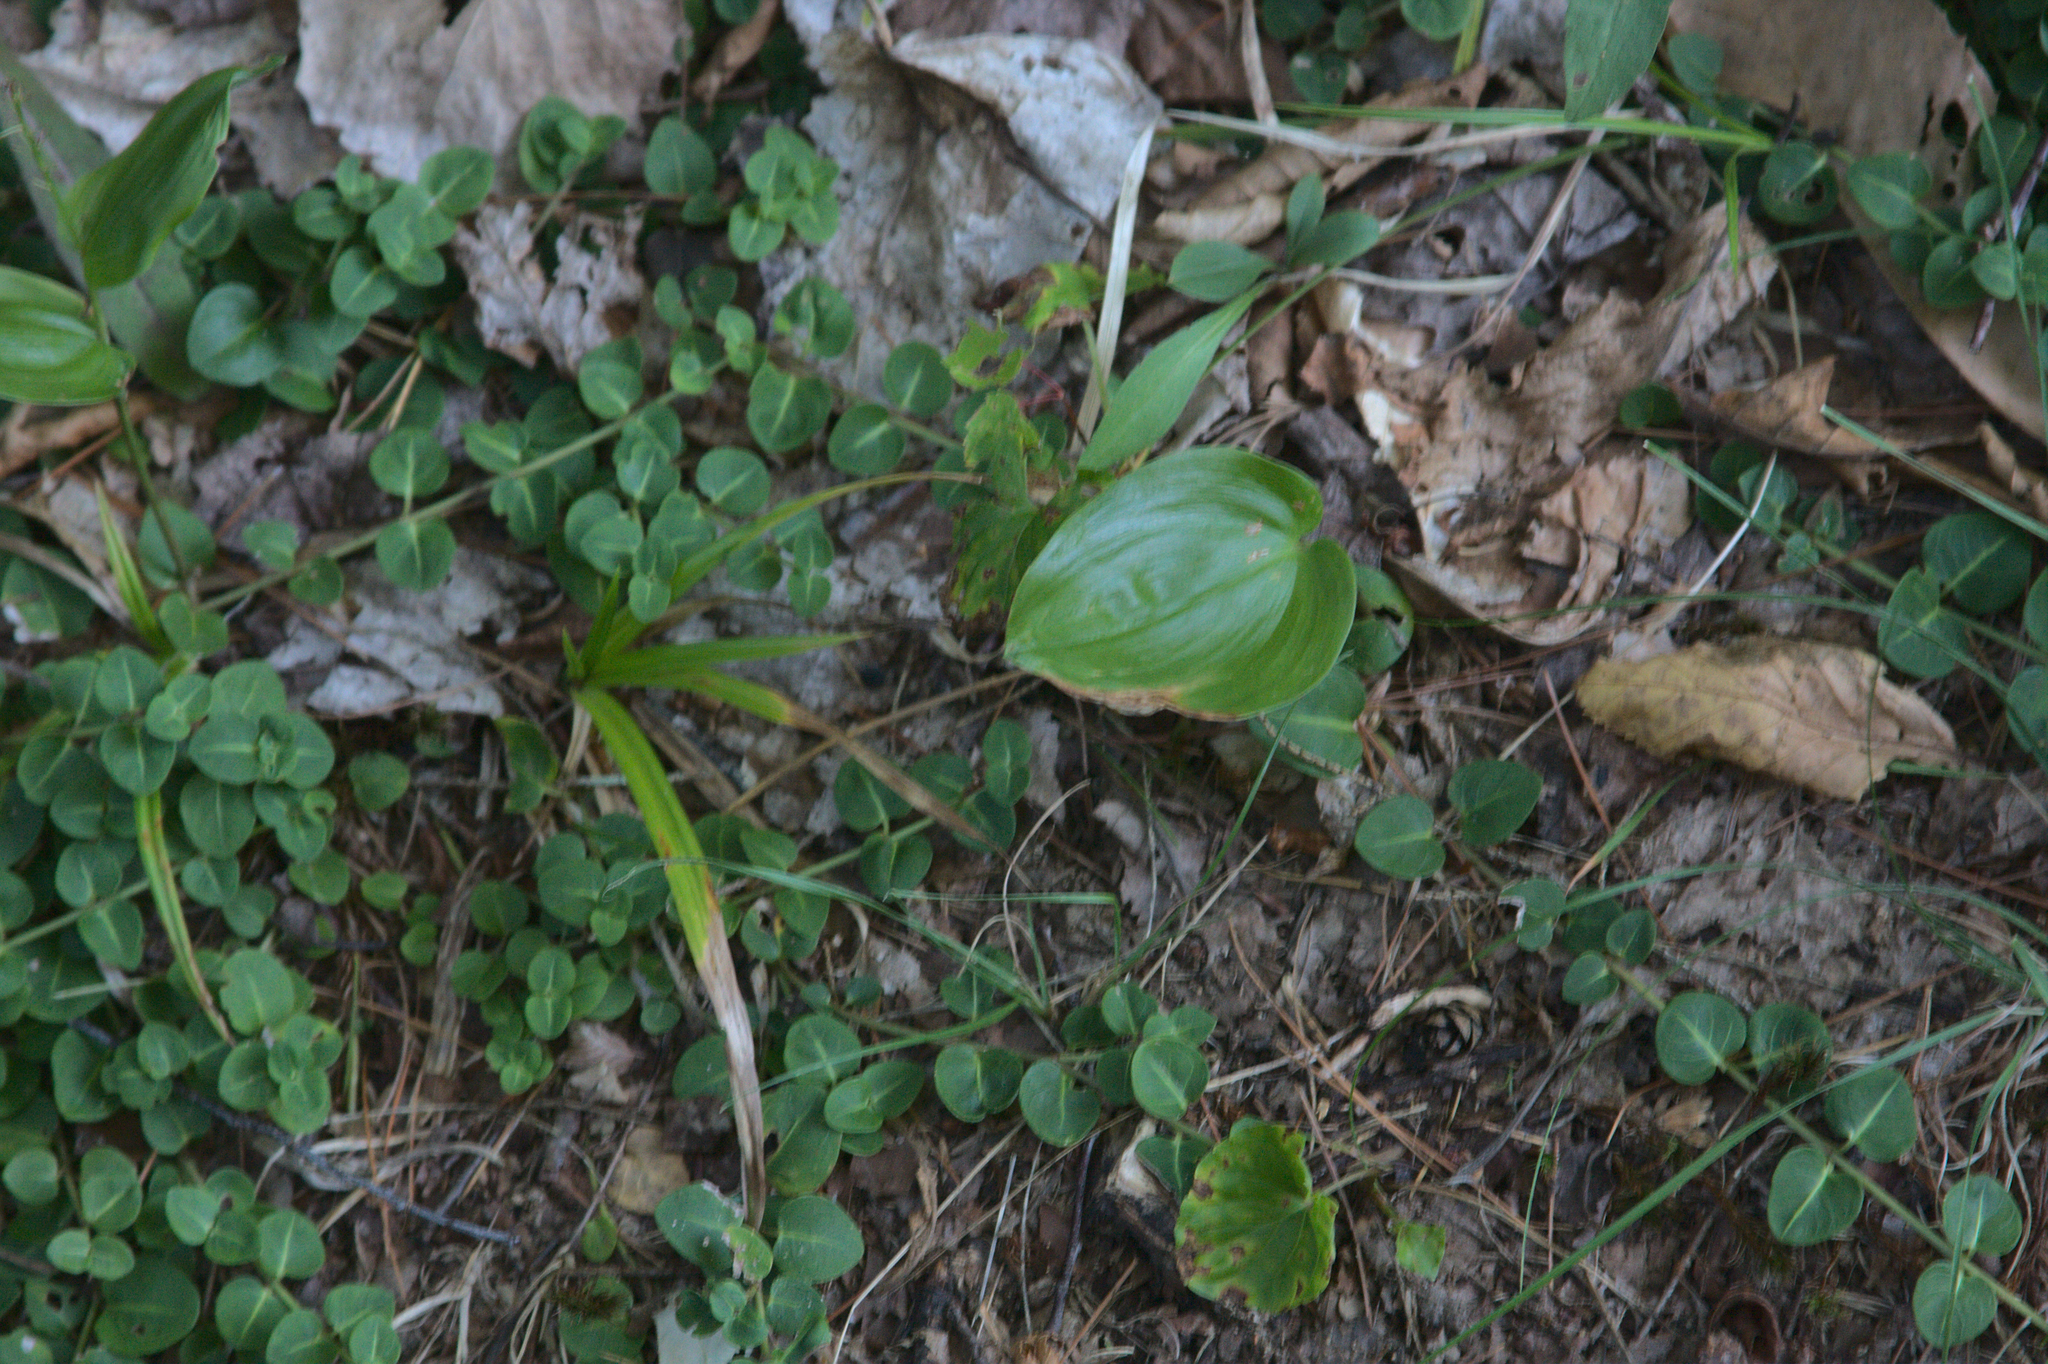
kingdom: Plantae
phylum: Tracheophyta
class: Liliopsida
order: Asparagales
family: Asparagaceae
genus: Maianthemum
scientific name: Maianthemum canadense
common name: False lily-of-the-valley
